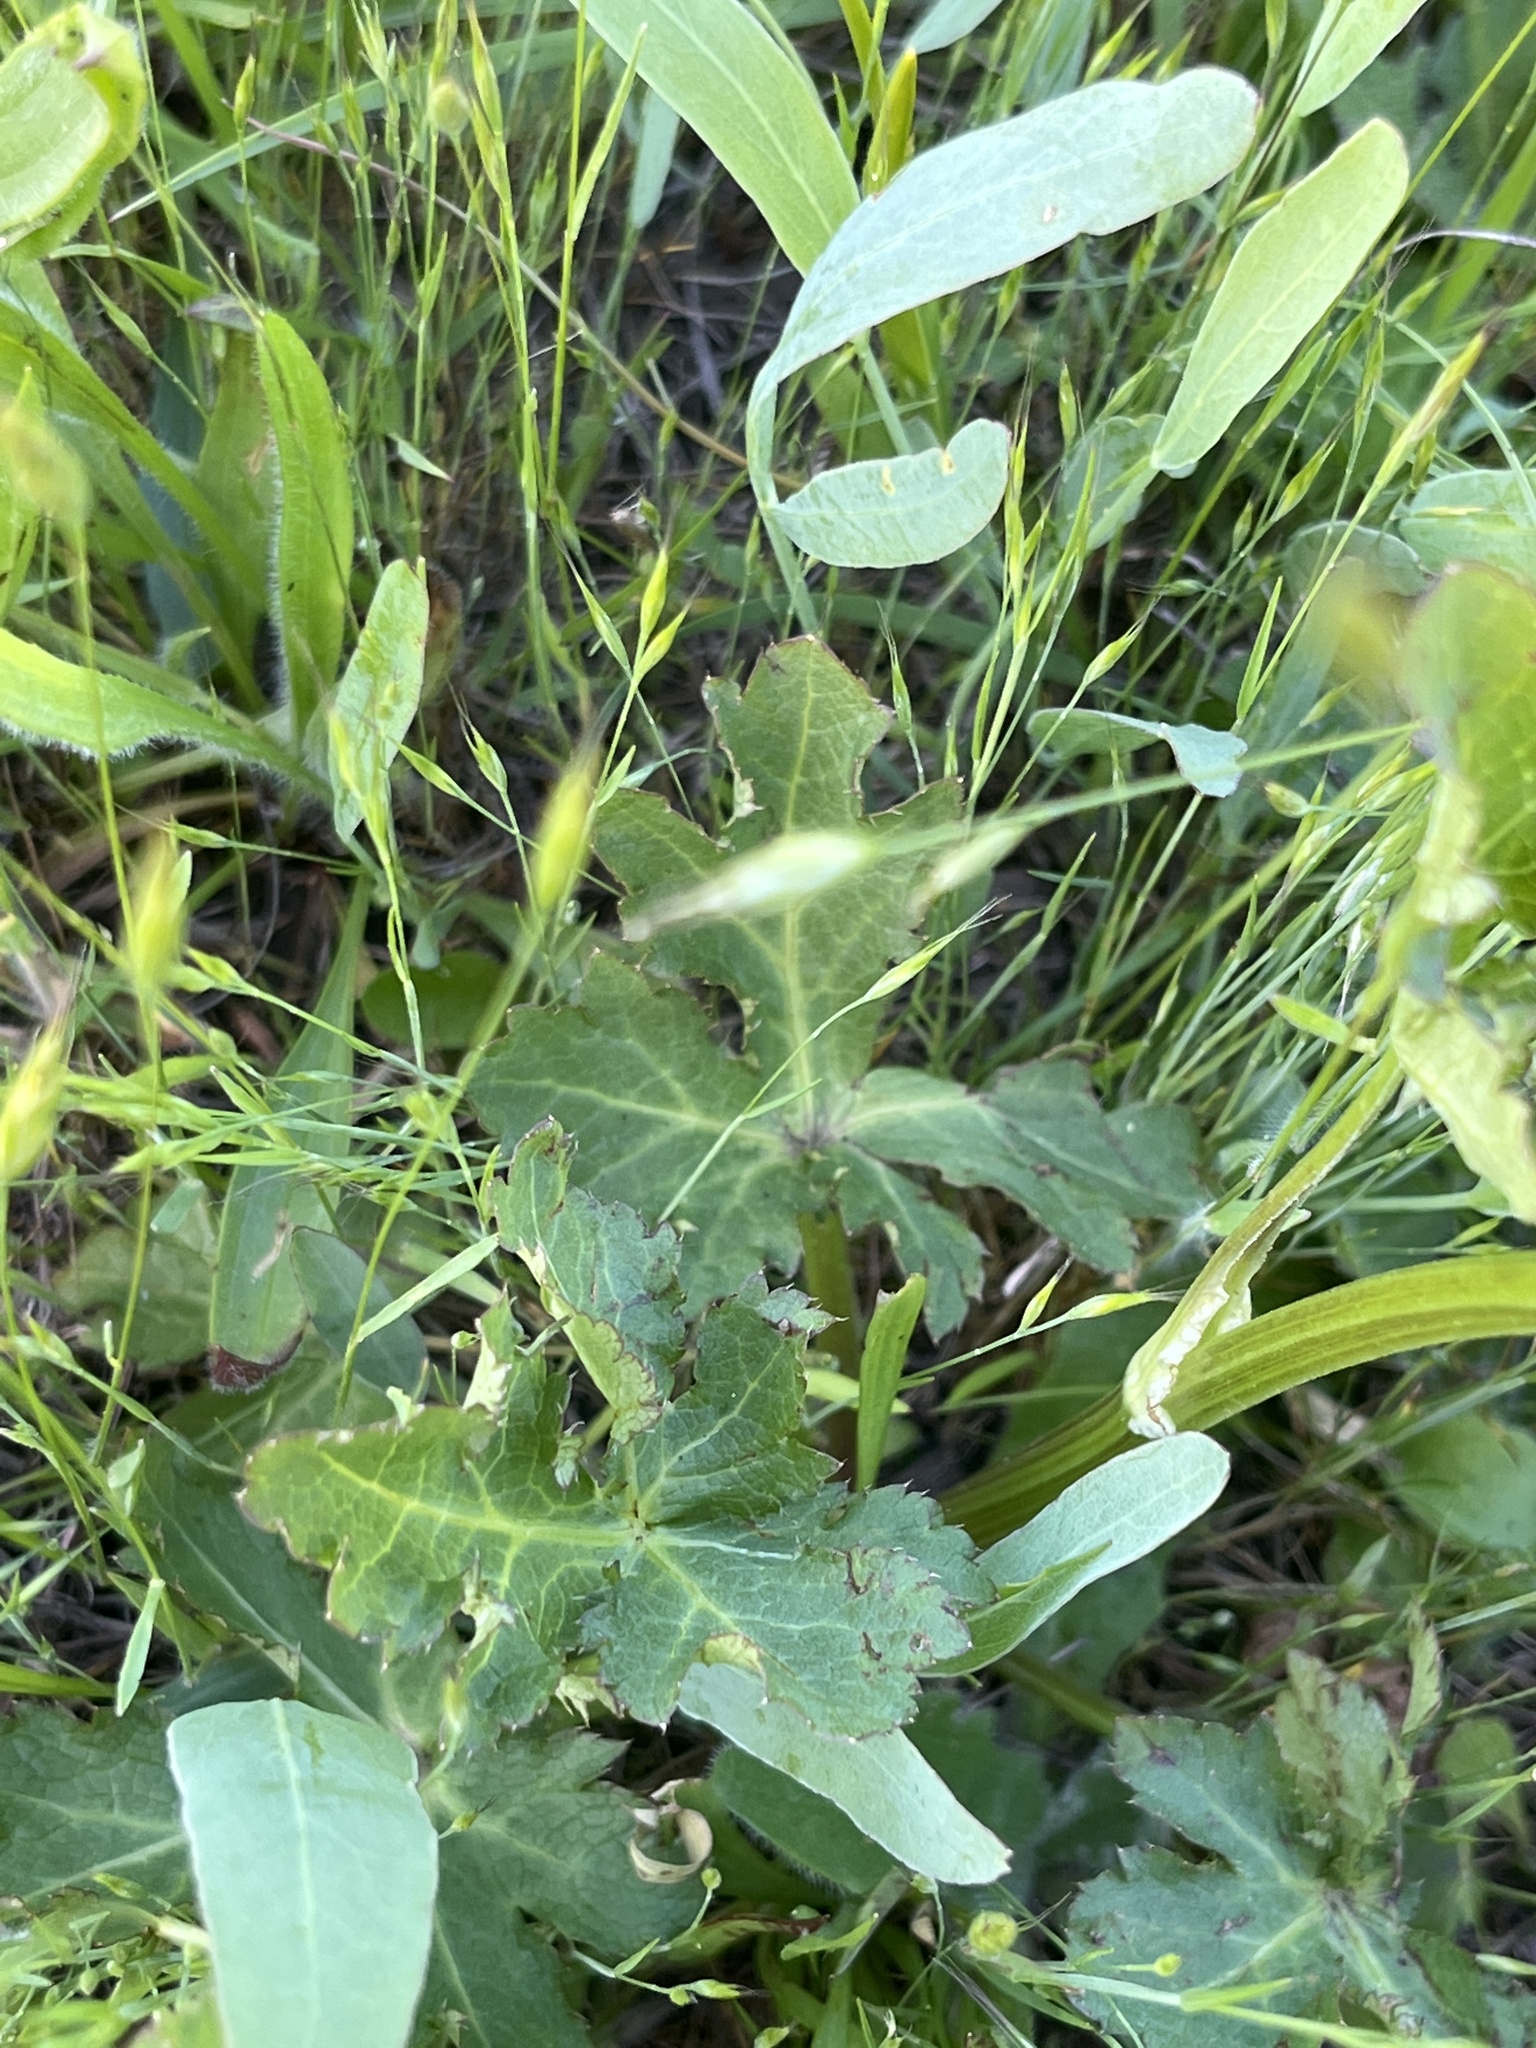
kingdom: Plantae
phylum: Tracheophyta
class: Magnoliopsida
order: Apiales
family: Apiaceae
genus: Sanicula
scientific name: Sanicula crassicaulis
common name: Western snakeroot
